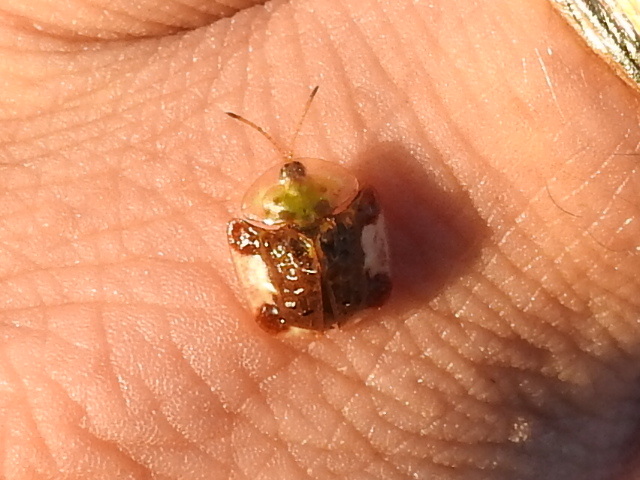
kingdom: Animalia
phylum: Arthropoda
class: Insecta
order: Coleoptera
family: Chrysomelidae
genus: Helocassis
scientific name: Helocassis clavata
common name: Clavate tortoise beetle
